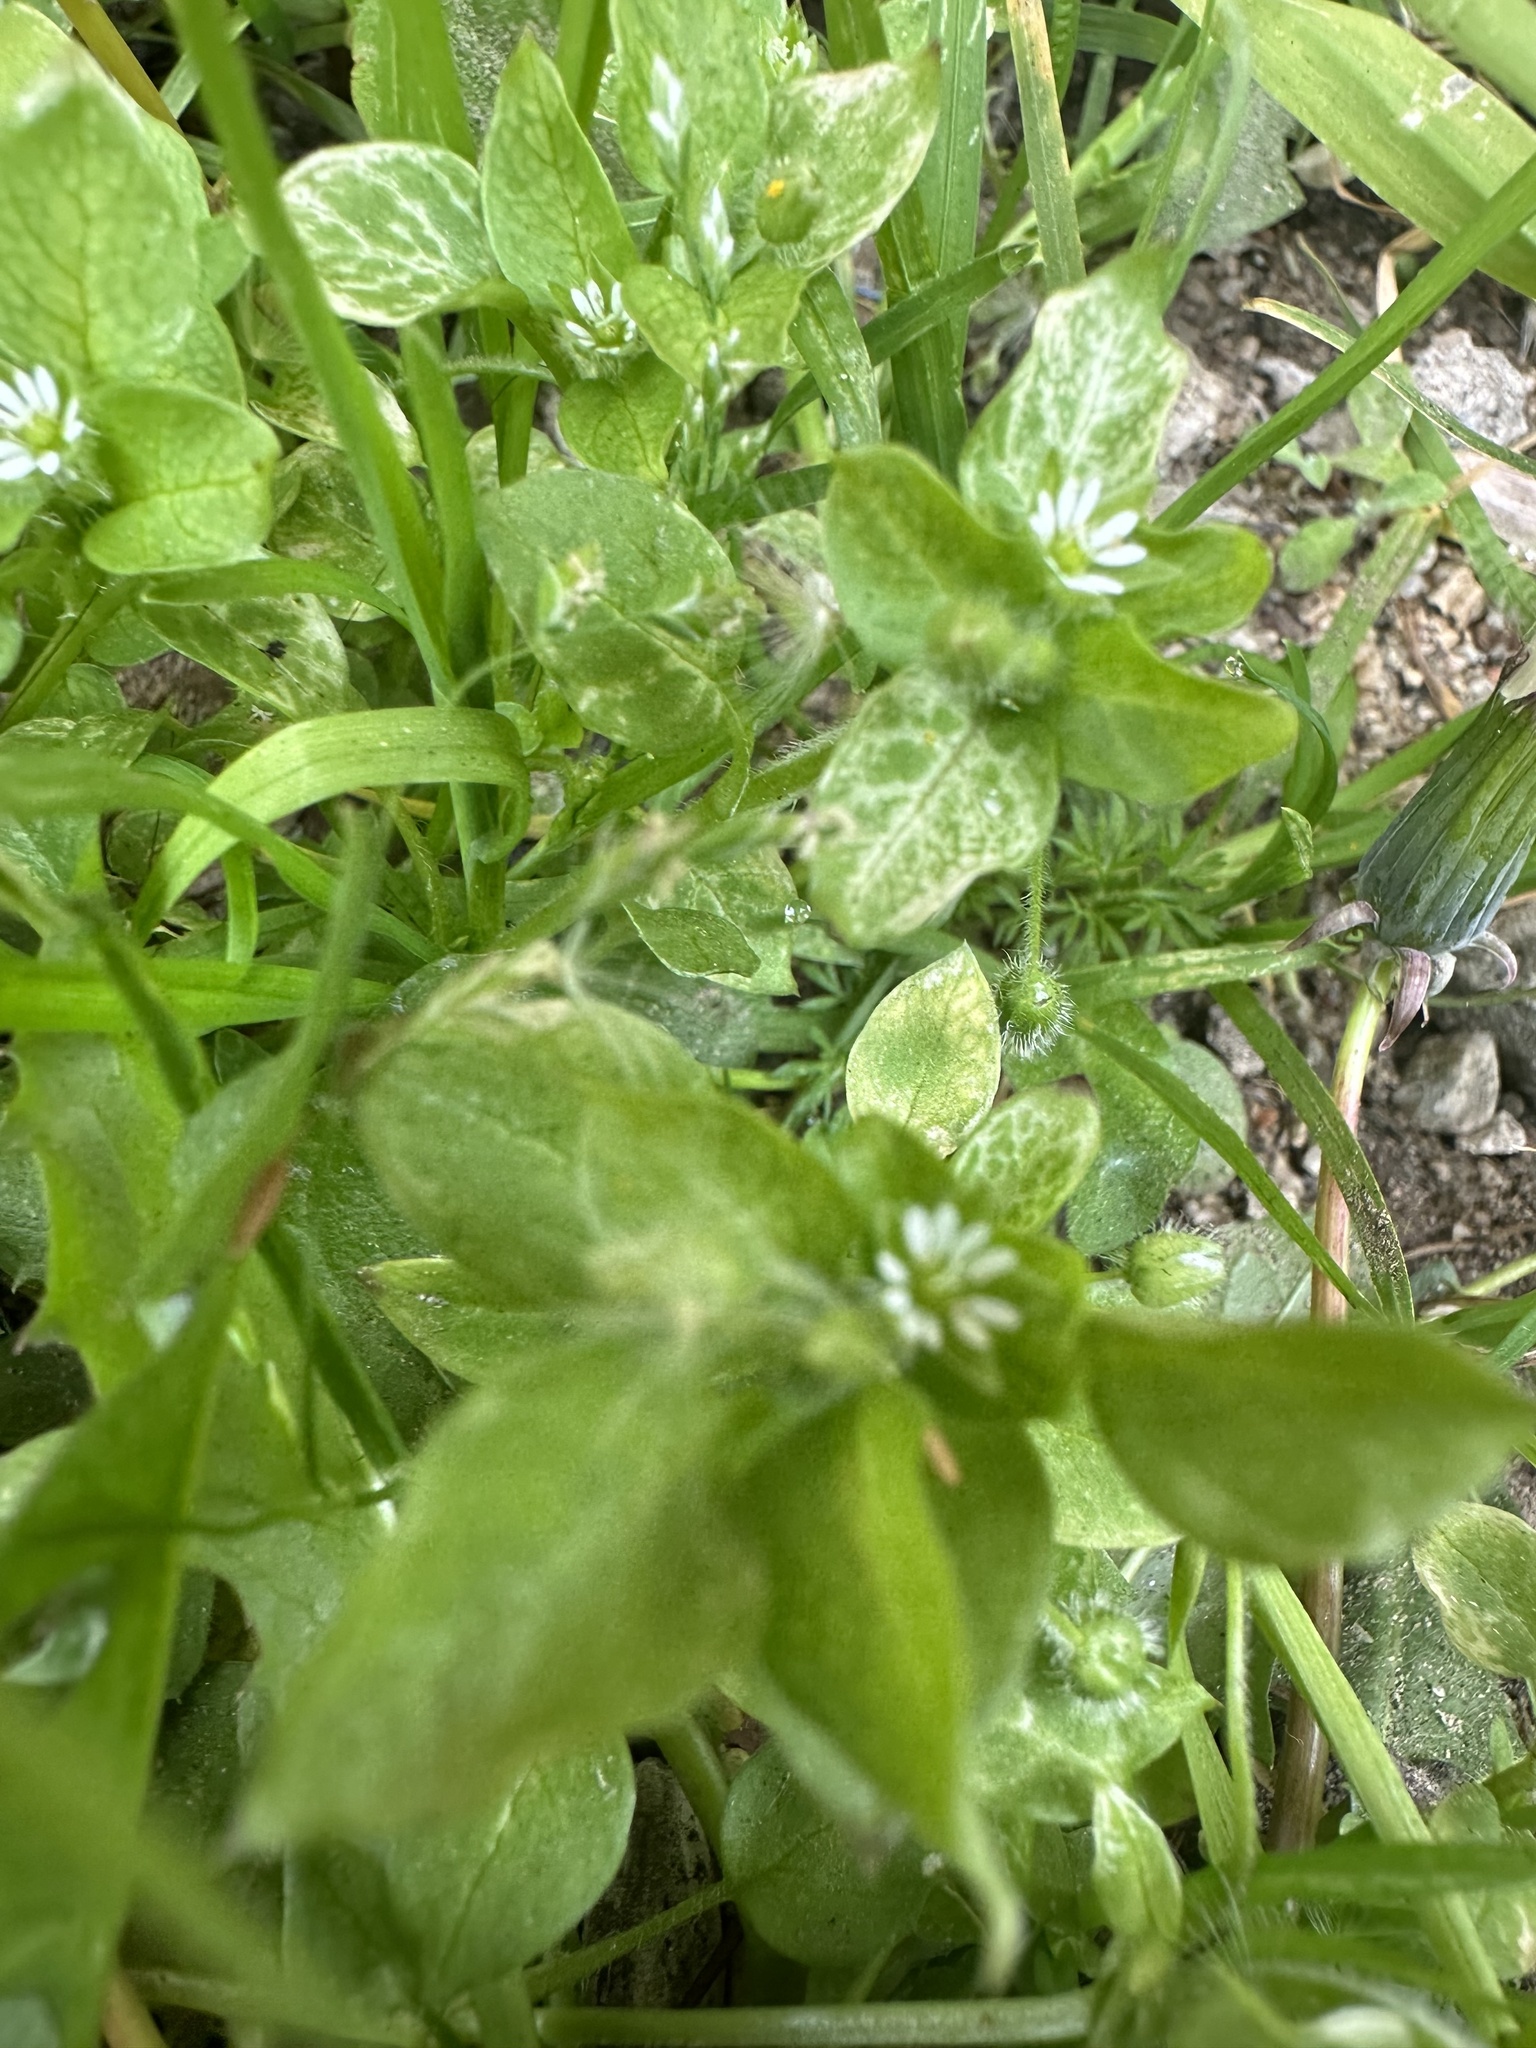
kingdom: Plantae
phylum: Tracheophyta
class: Magnoliopsida
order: Caryophyllales
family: Caryophyllaceae
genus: Stellaria
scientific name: Stellaria media
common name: Common chickweed
